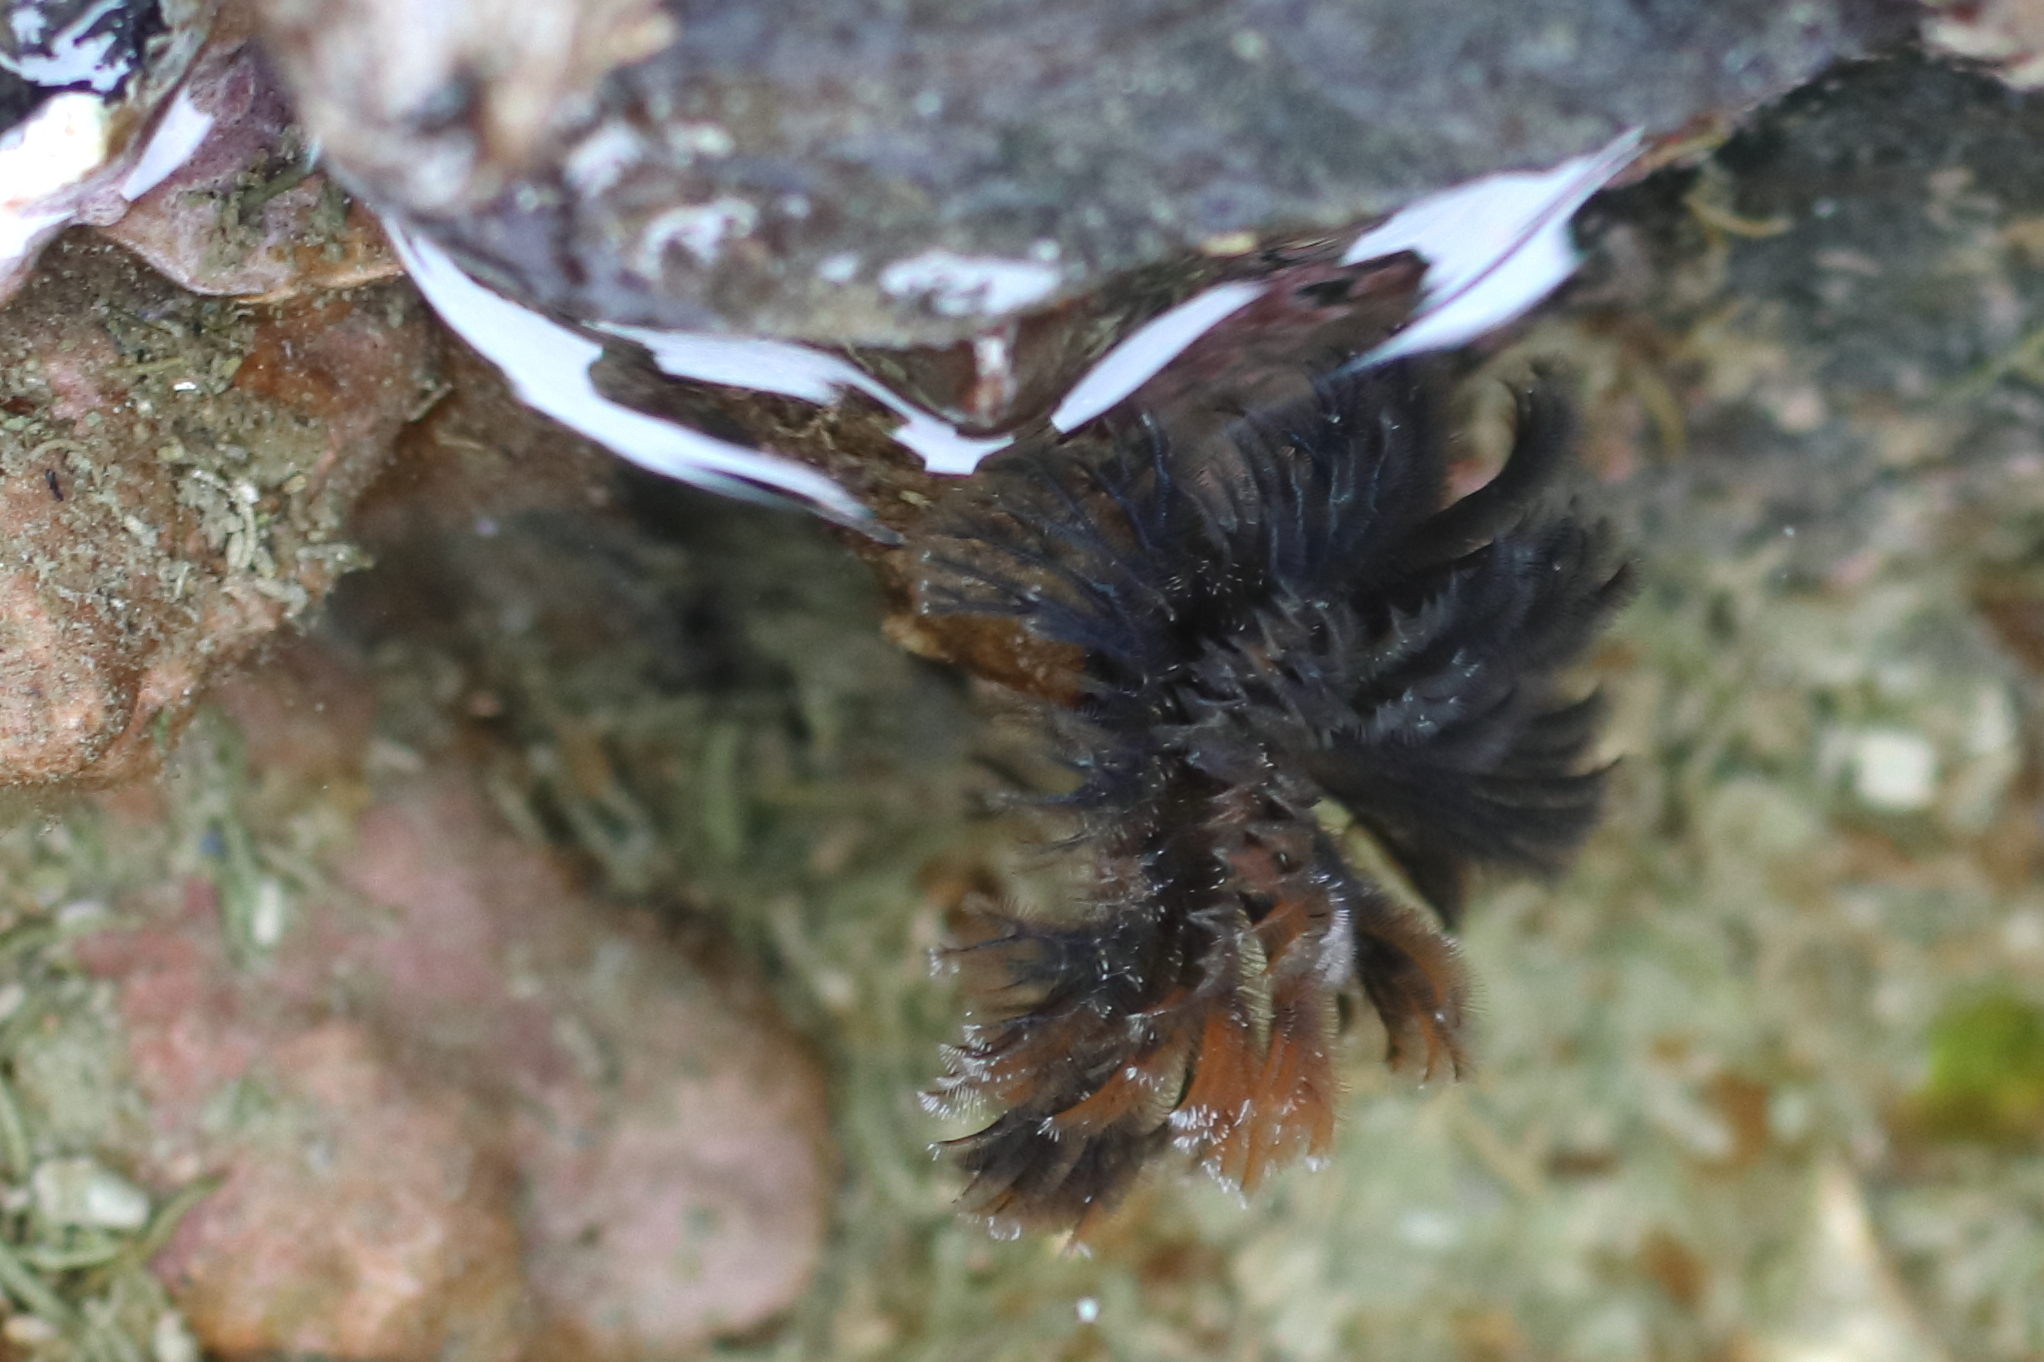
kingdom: Animalia
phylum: Annelida
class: Polychaeta
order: Sabellida
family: Sabellidae
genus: Schizobranchia
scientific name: Schizobranchia insignis
